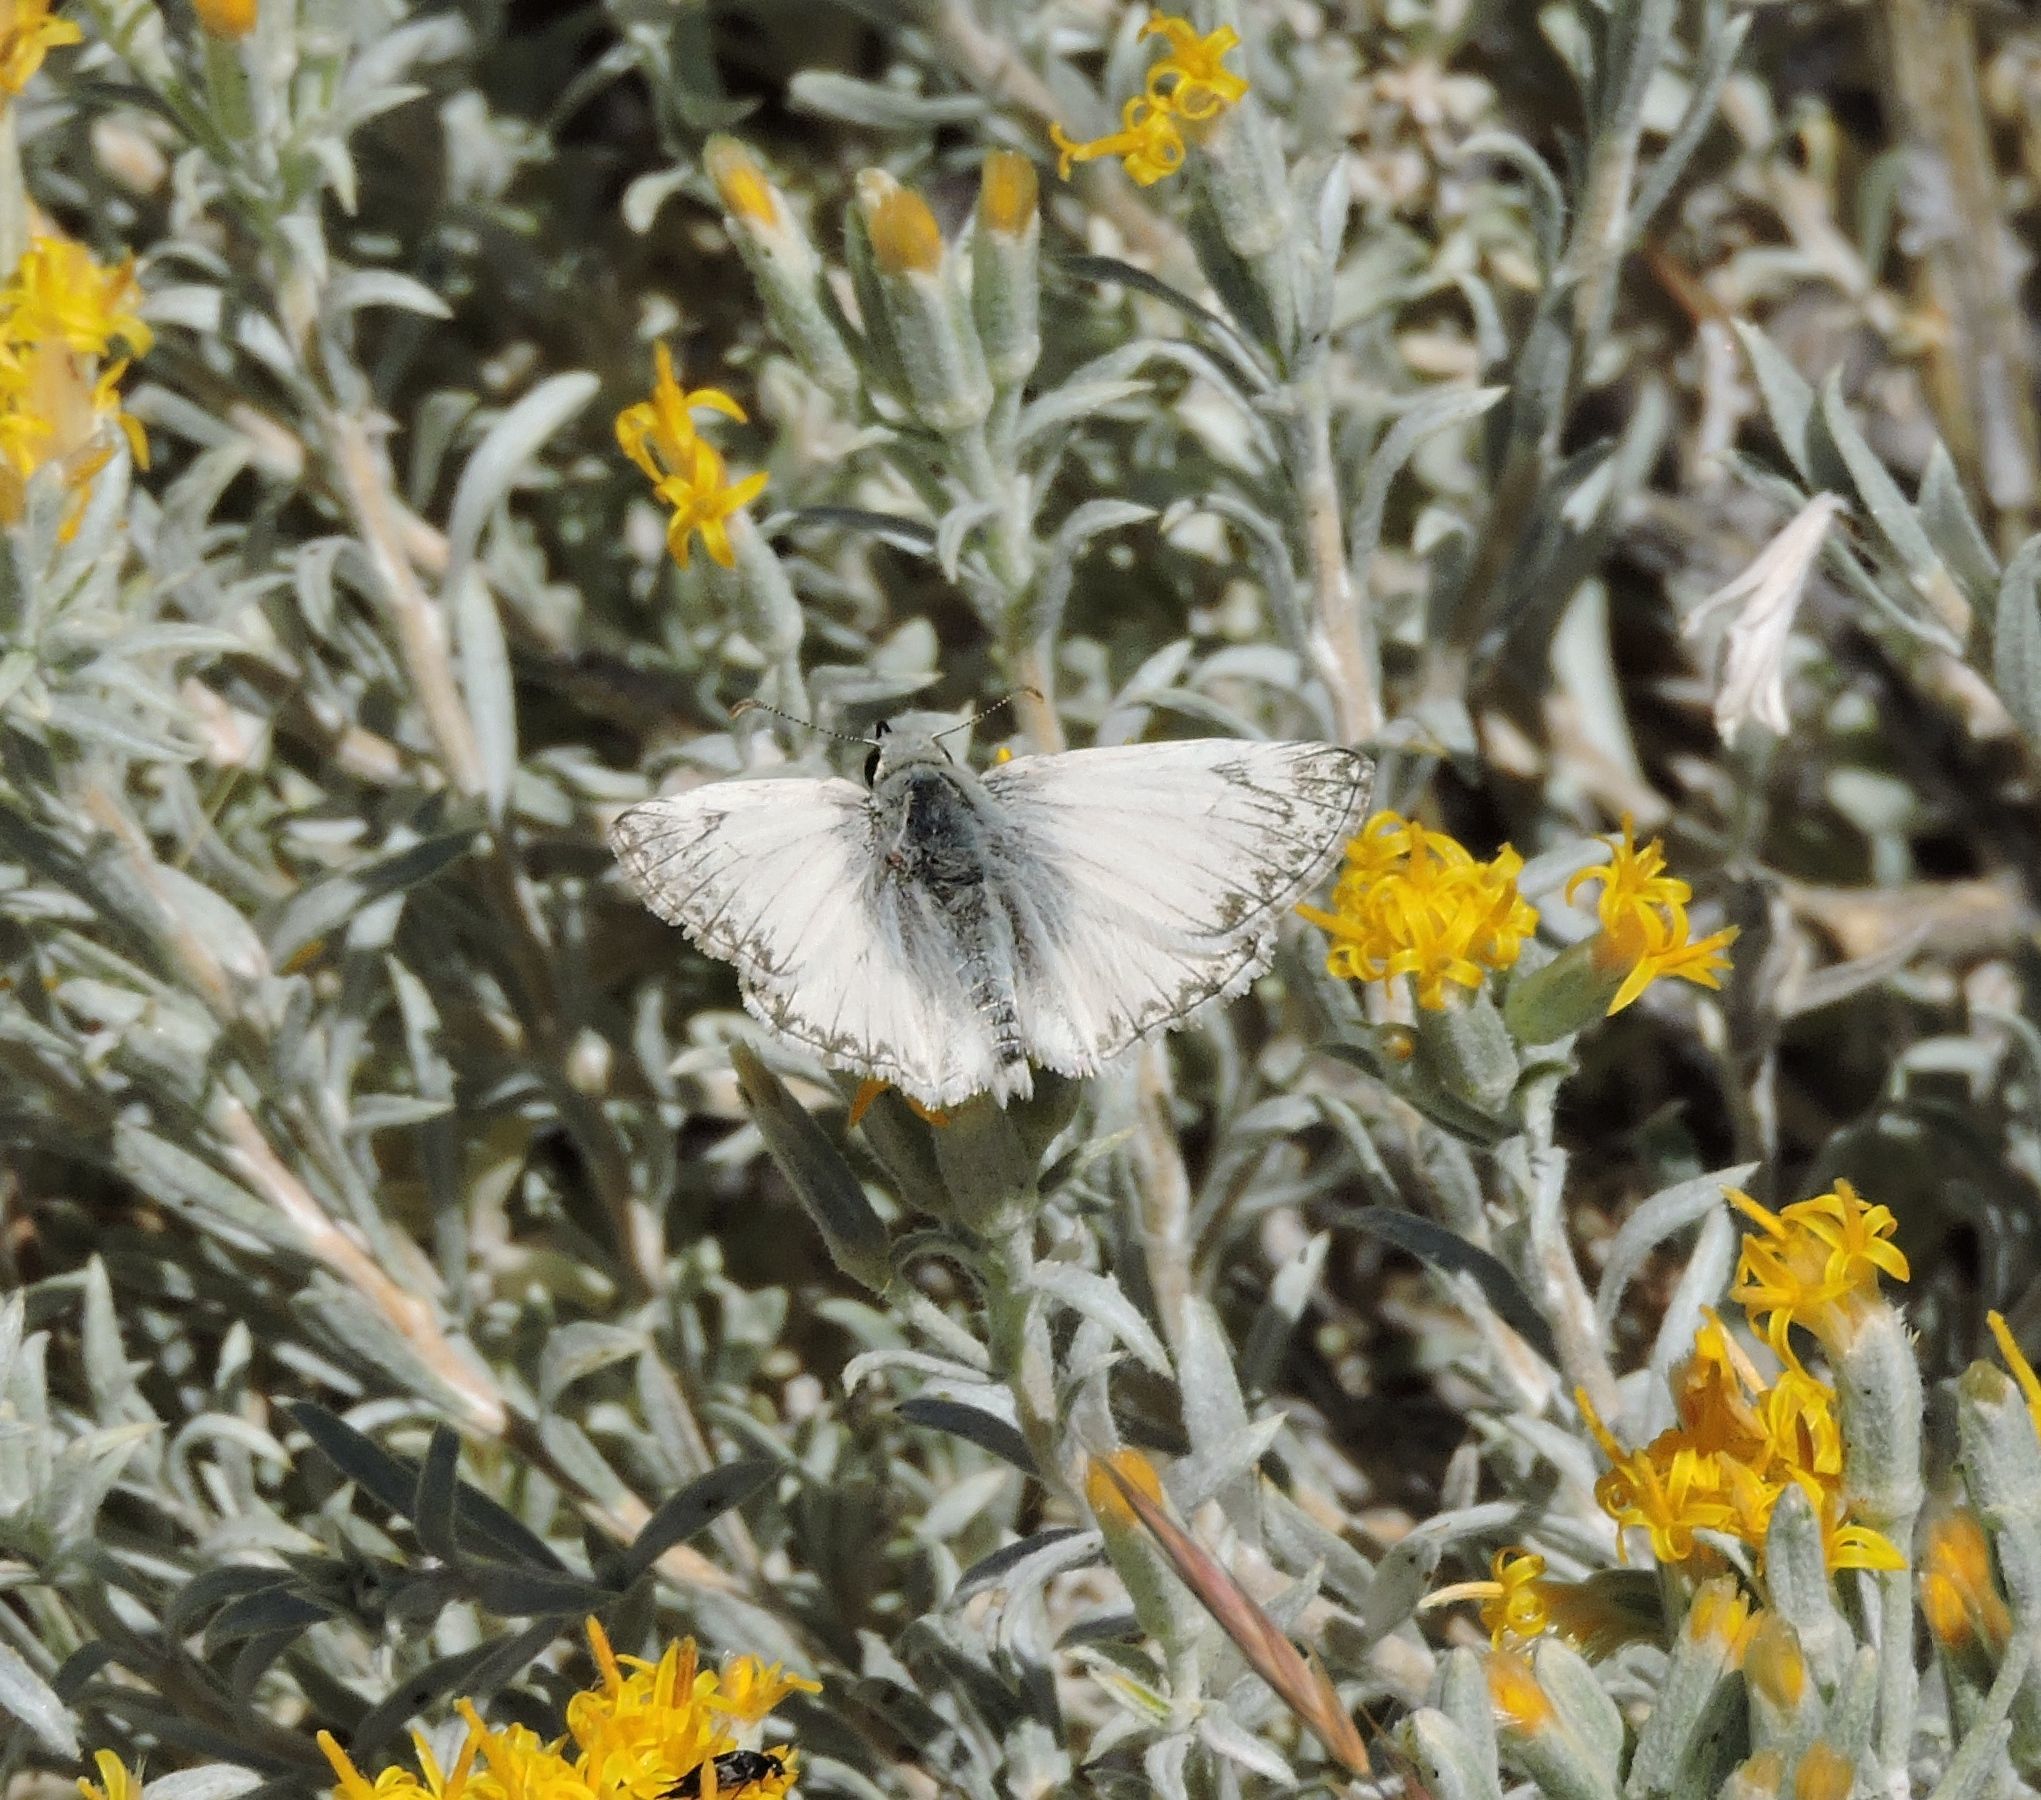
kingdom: Animalia
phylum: Arthropoda
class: Insecta
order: Lepidoptera
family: Hesperiidae
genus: Heliopetes
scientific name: Heliopetes ericetorum
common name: Northern white-skipper
